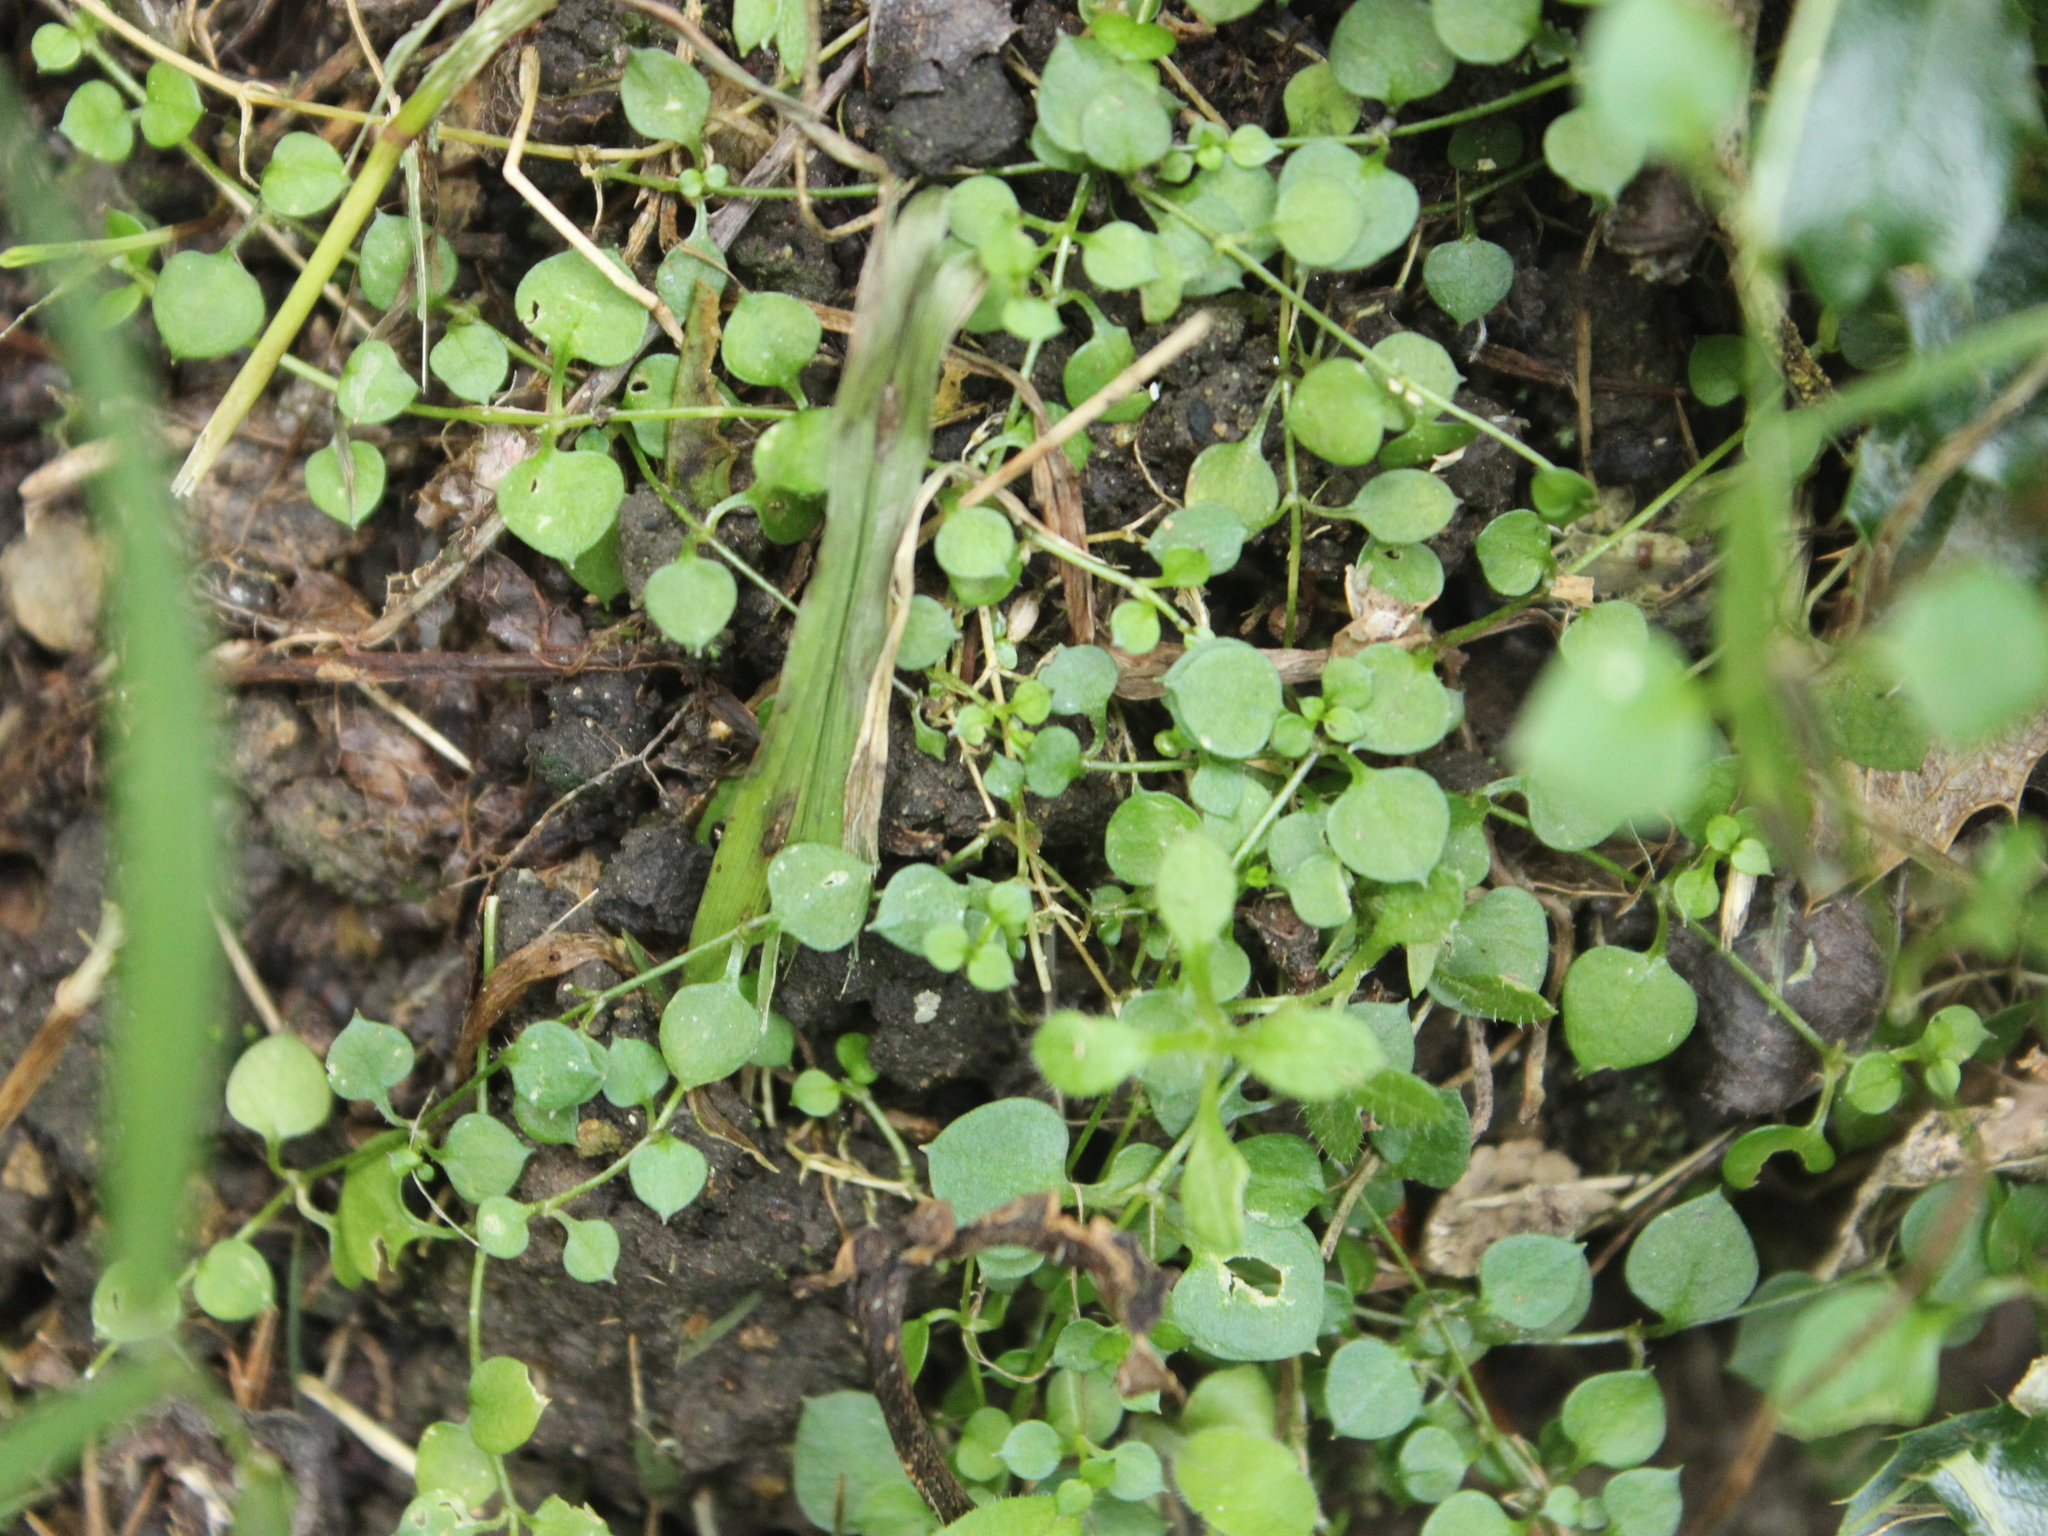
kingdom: Plantae
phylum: Tracheophyta
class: Magnoliopsida
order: Caryophyllales
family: Caryophyllaceae
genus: Stellaria
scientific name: Stellaria parviflora
